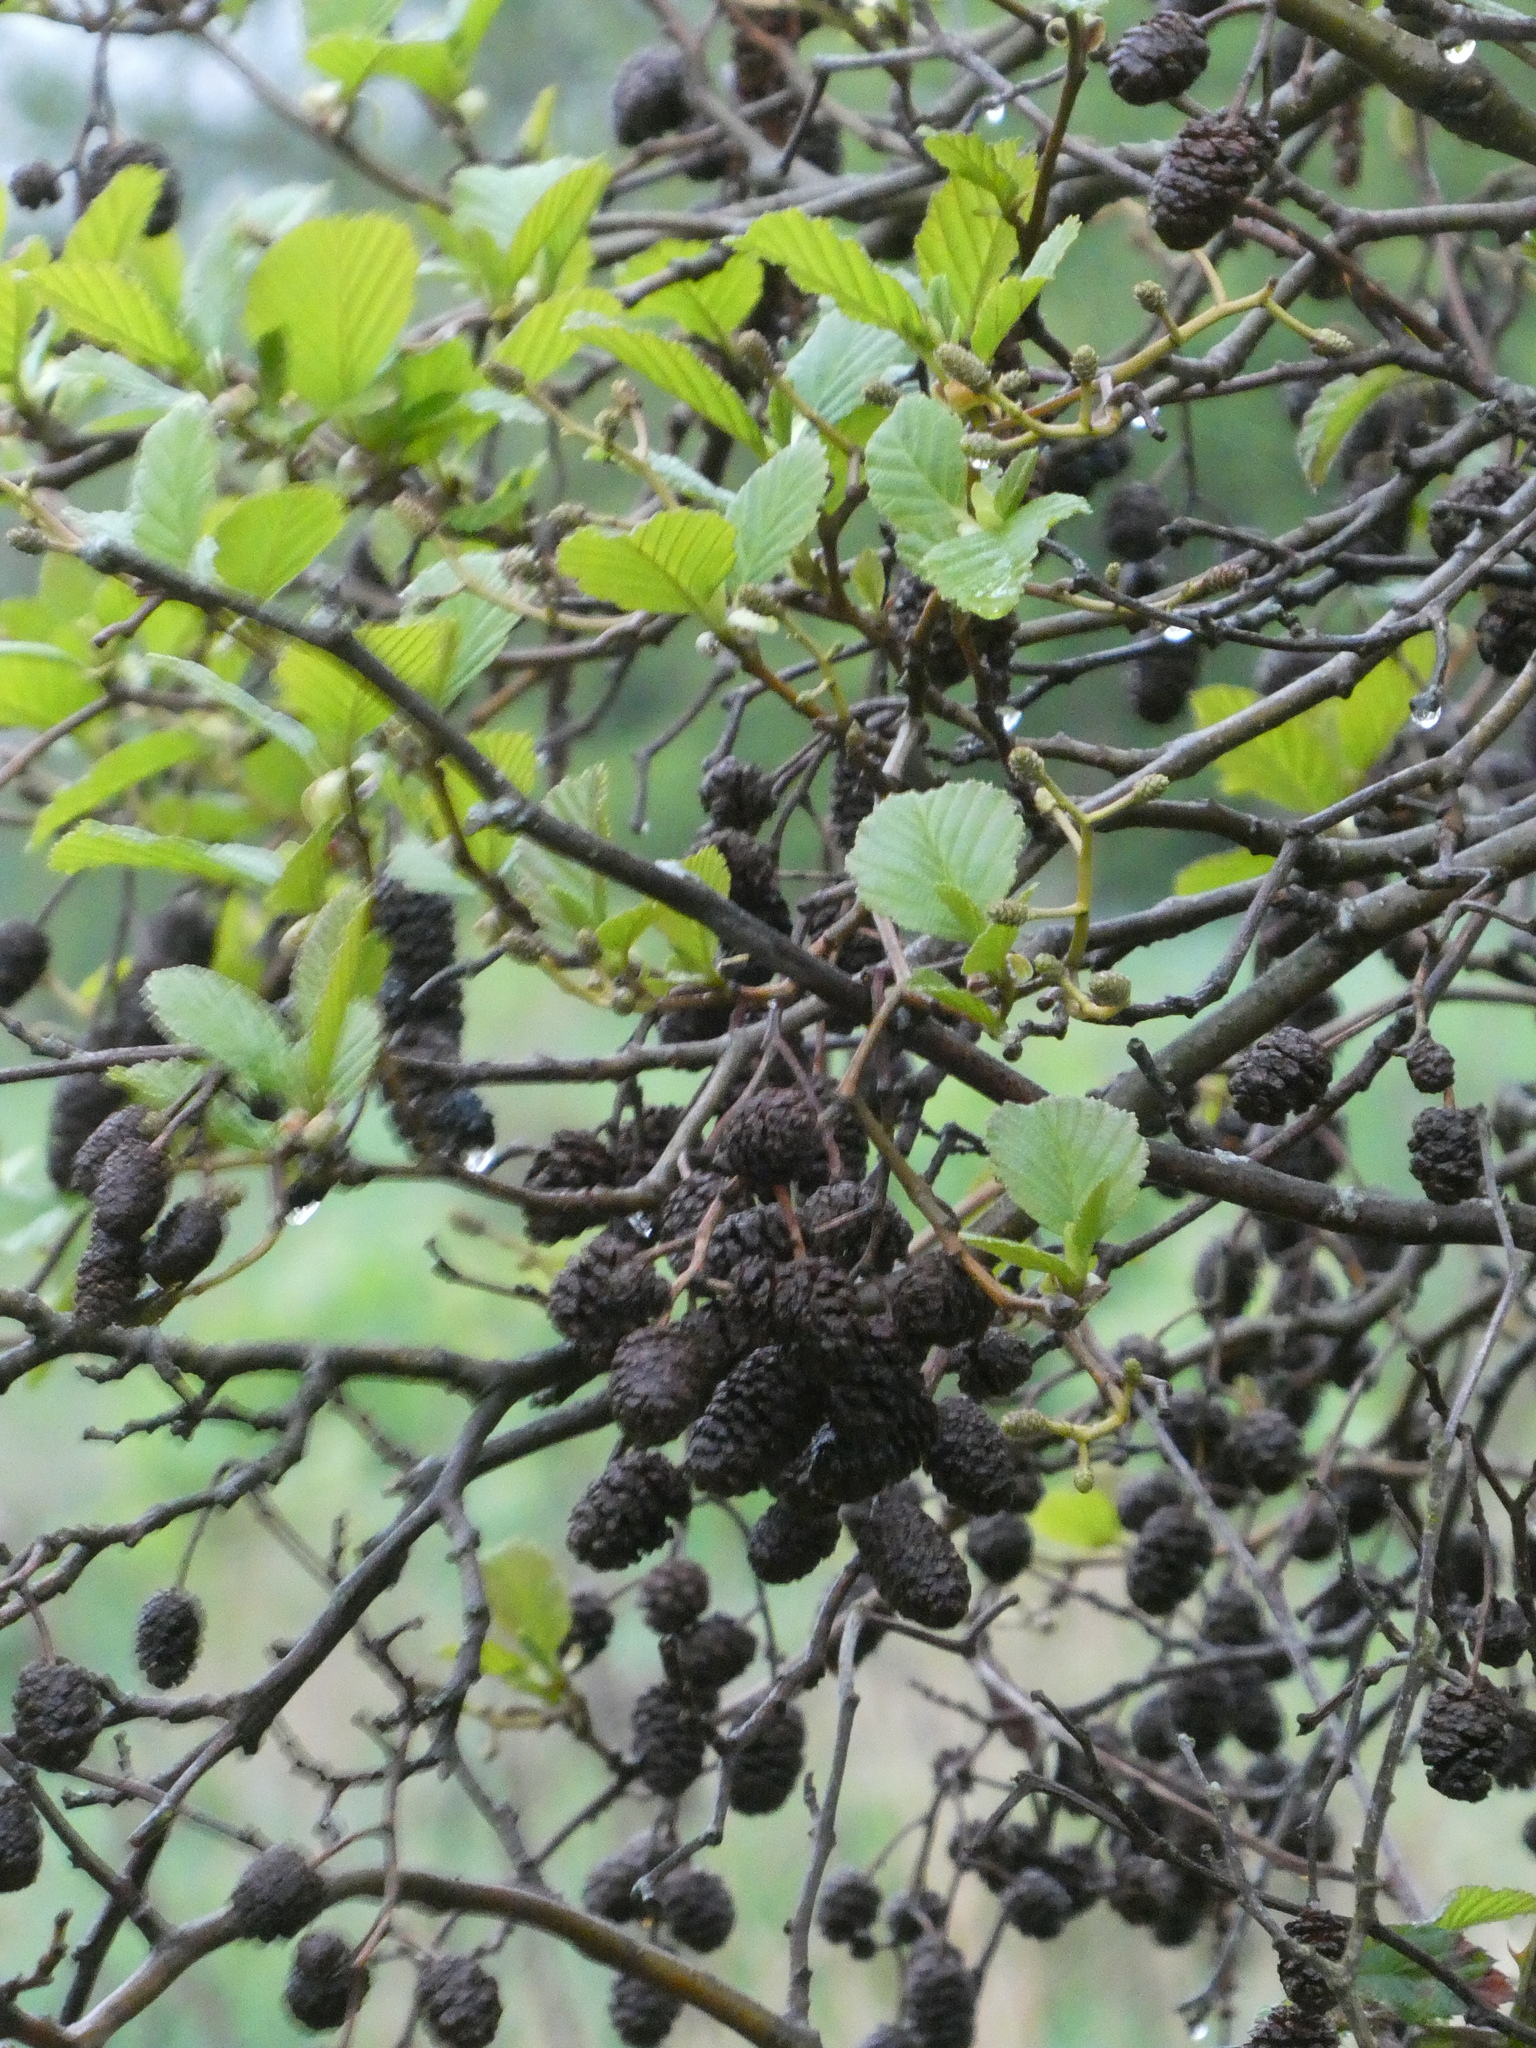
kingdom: Plantae
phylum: Tracheophyta
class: Magnoliopsida
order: Fagales
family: Betulaceae
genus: Alnus
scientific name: Alnus glutinosa
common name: Black alder
